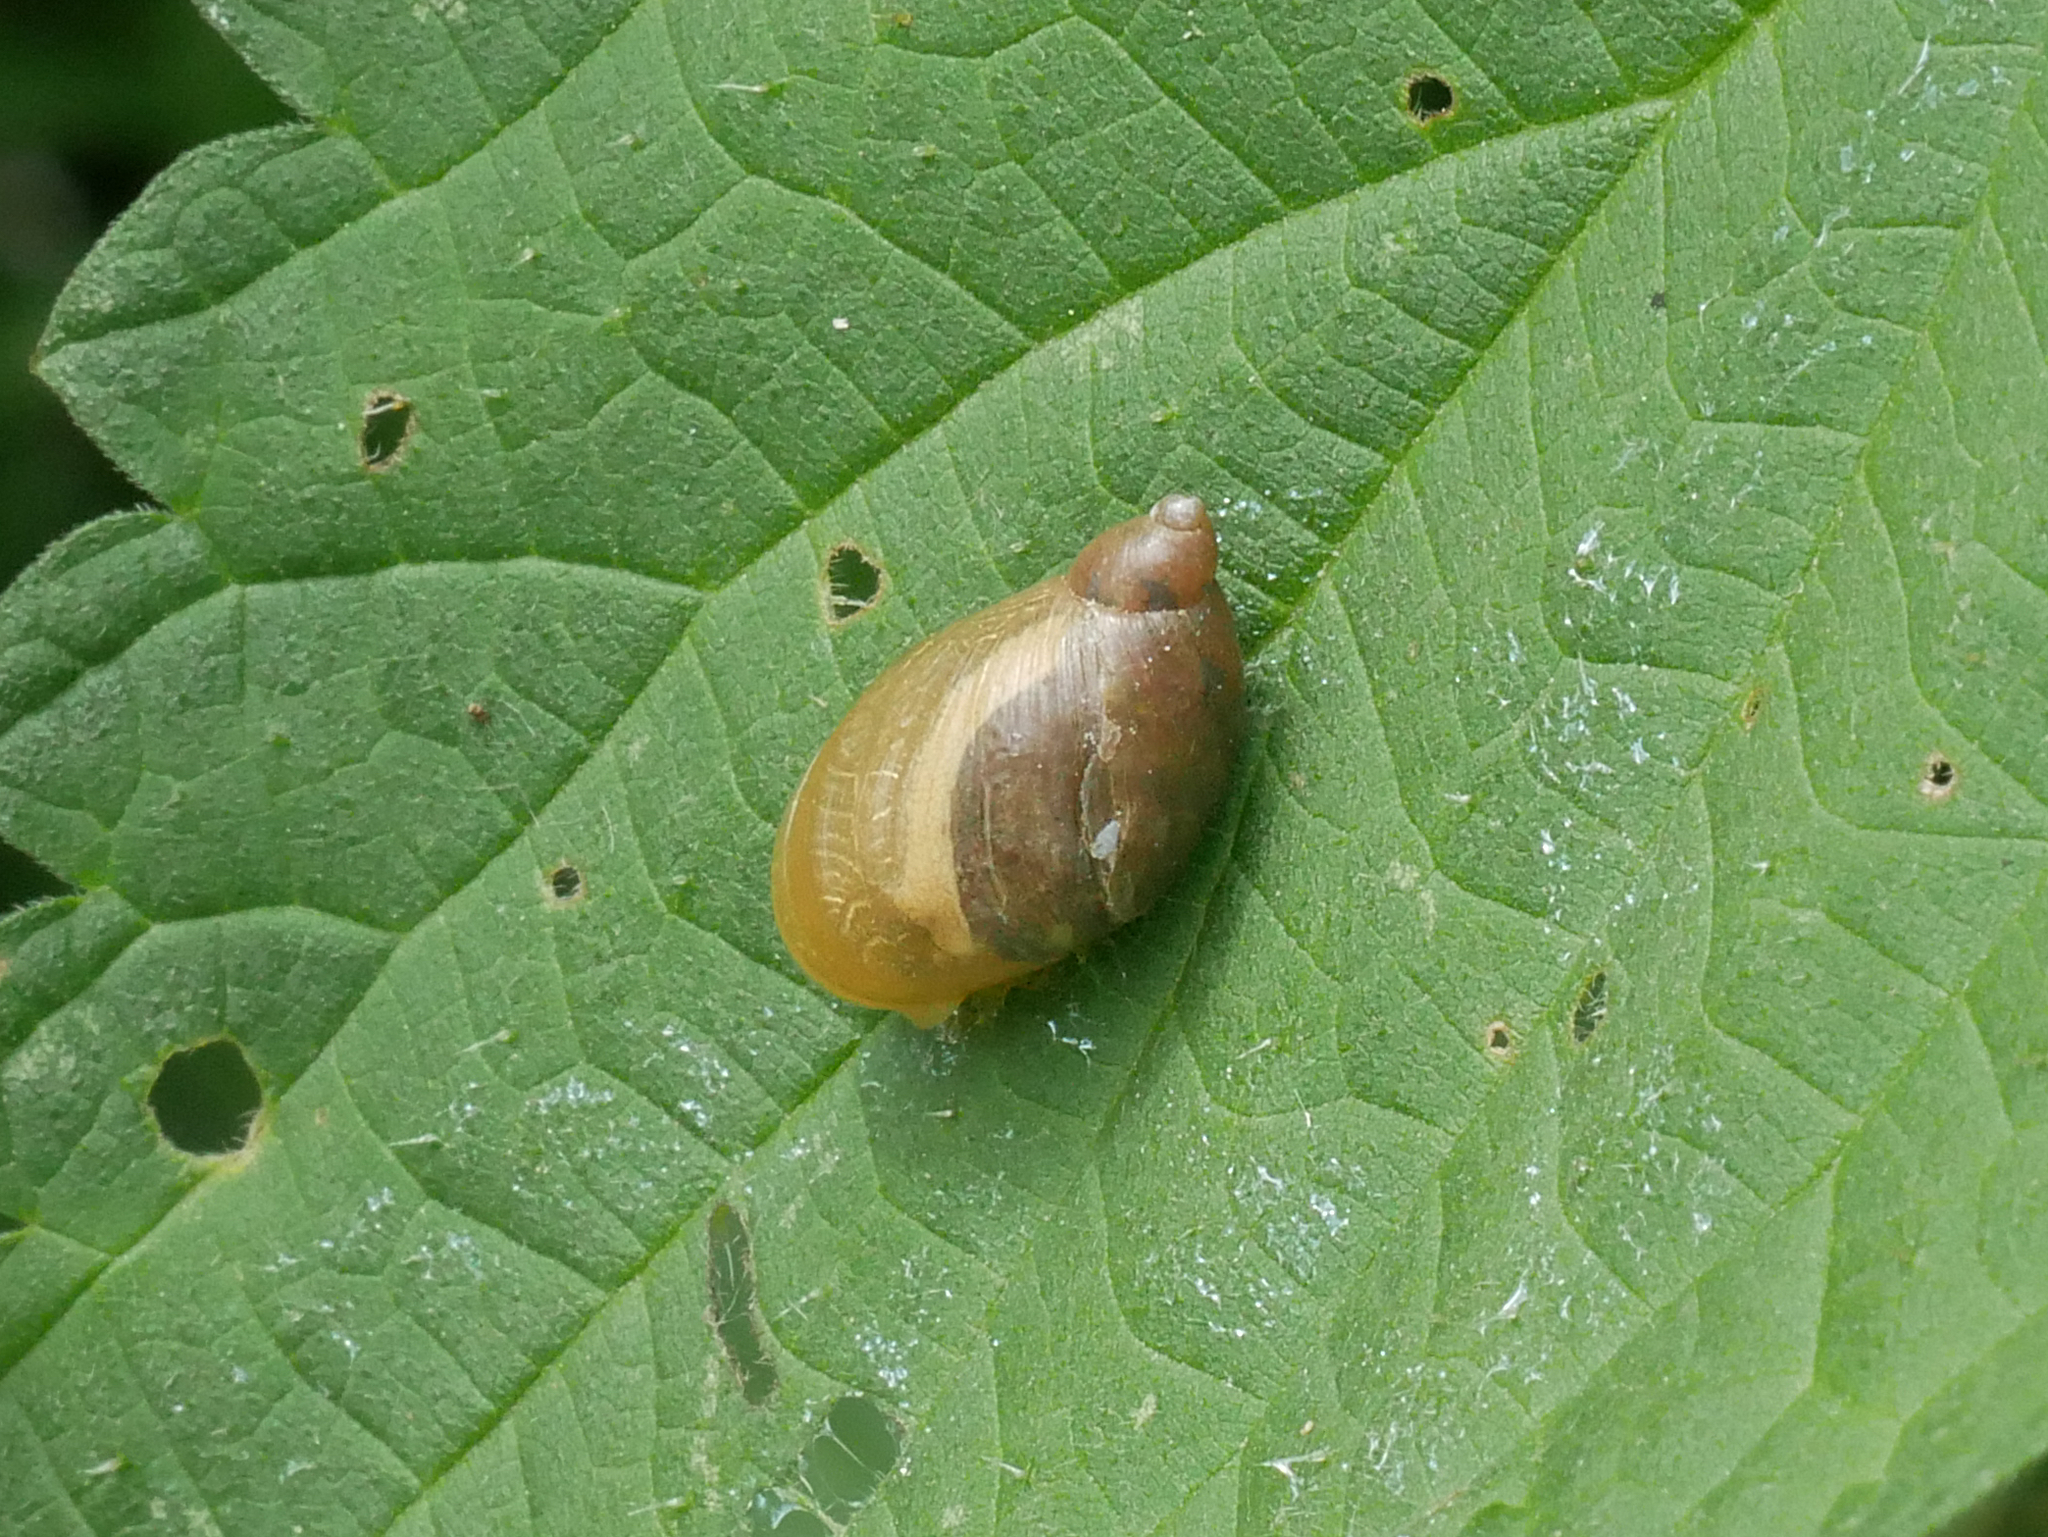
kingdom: Animalia
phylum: Mollusca
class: Gastropoda
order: Stylommatophora
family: Succineidae
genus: Succinea
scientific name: Succinea putris
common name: European ambersnail
